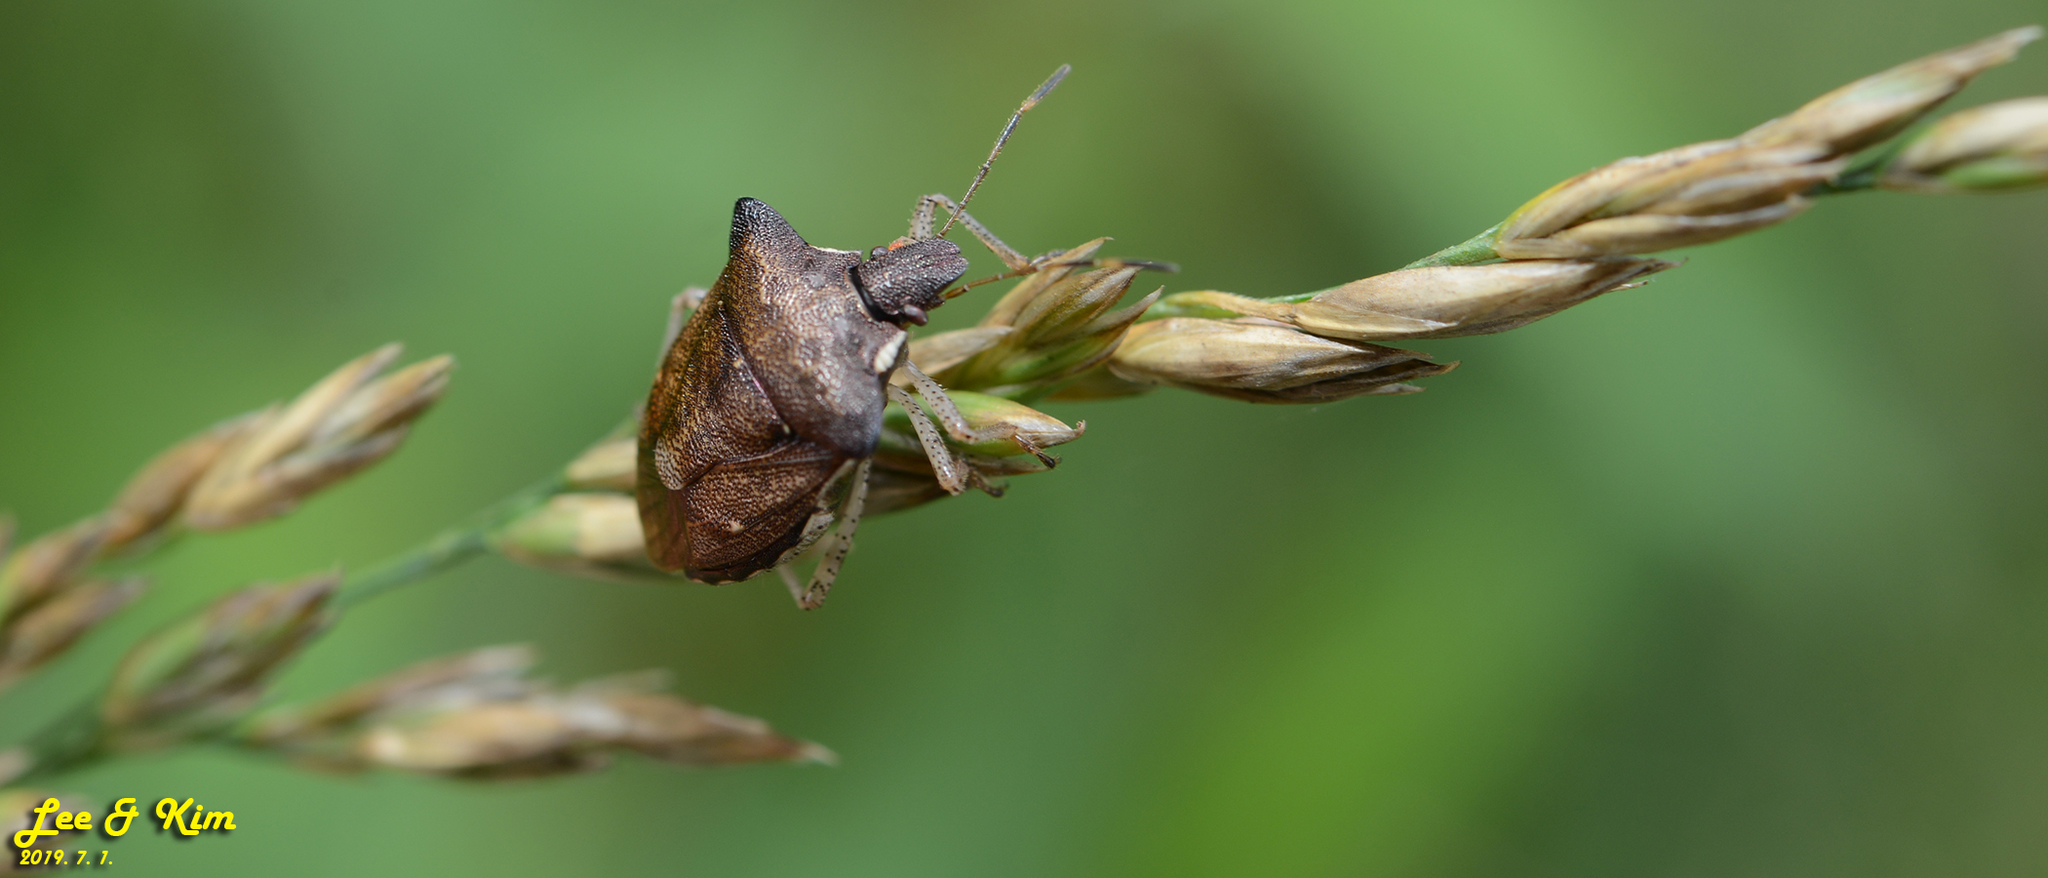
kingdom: Animalia
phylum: Arthropoda
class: Insecta
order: Hemiptera
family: Pentatomidae
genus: Carbula
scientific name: Carbula putoni
